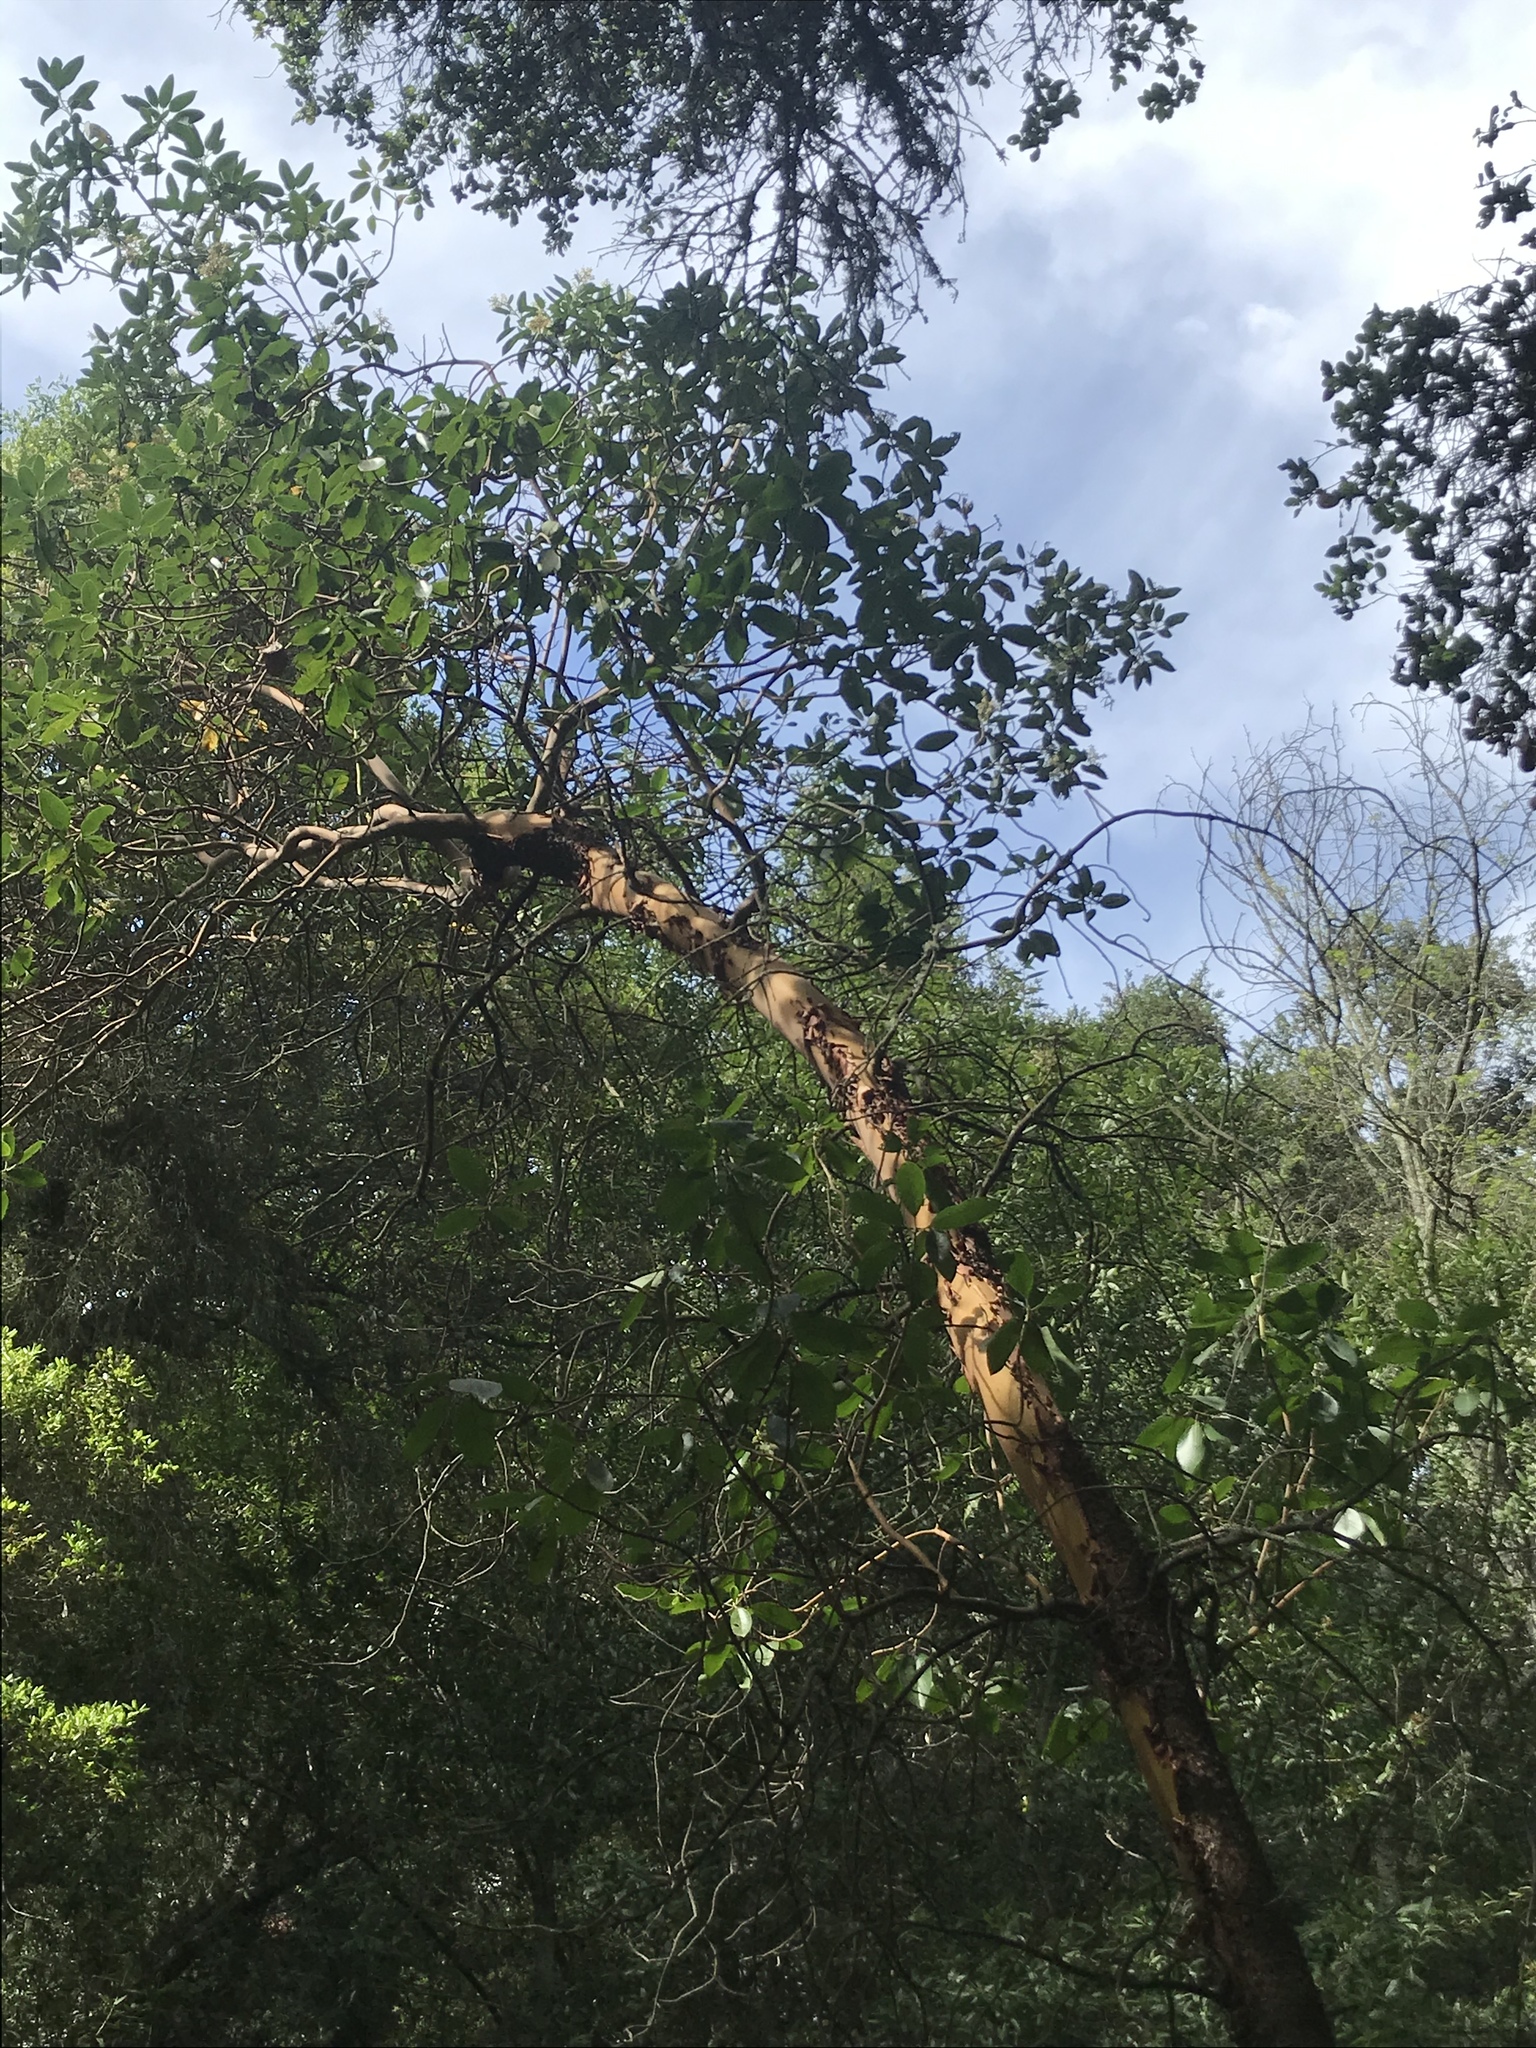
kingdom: Plantae
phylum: Tracheophyta
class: Magnoliopsida
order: Ericales
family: Ericaceae
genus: Arbutus
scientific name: Arbutus menziesii
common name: Pacific madrone
